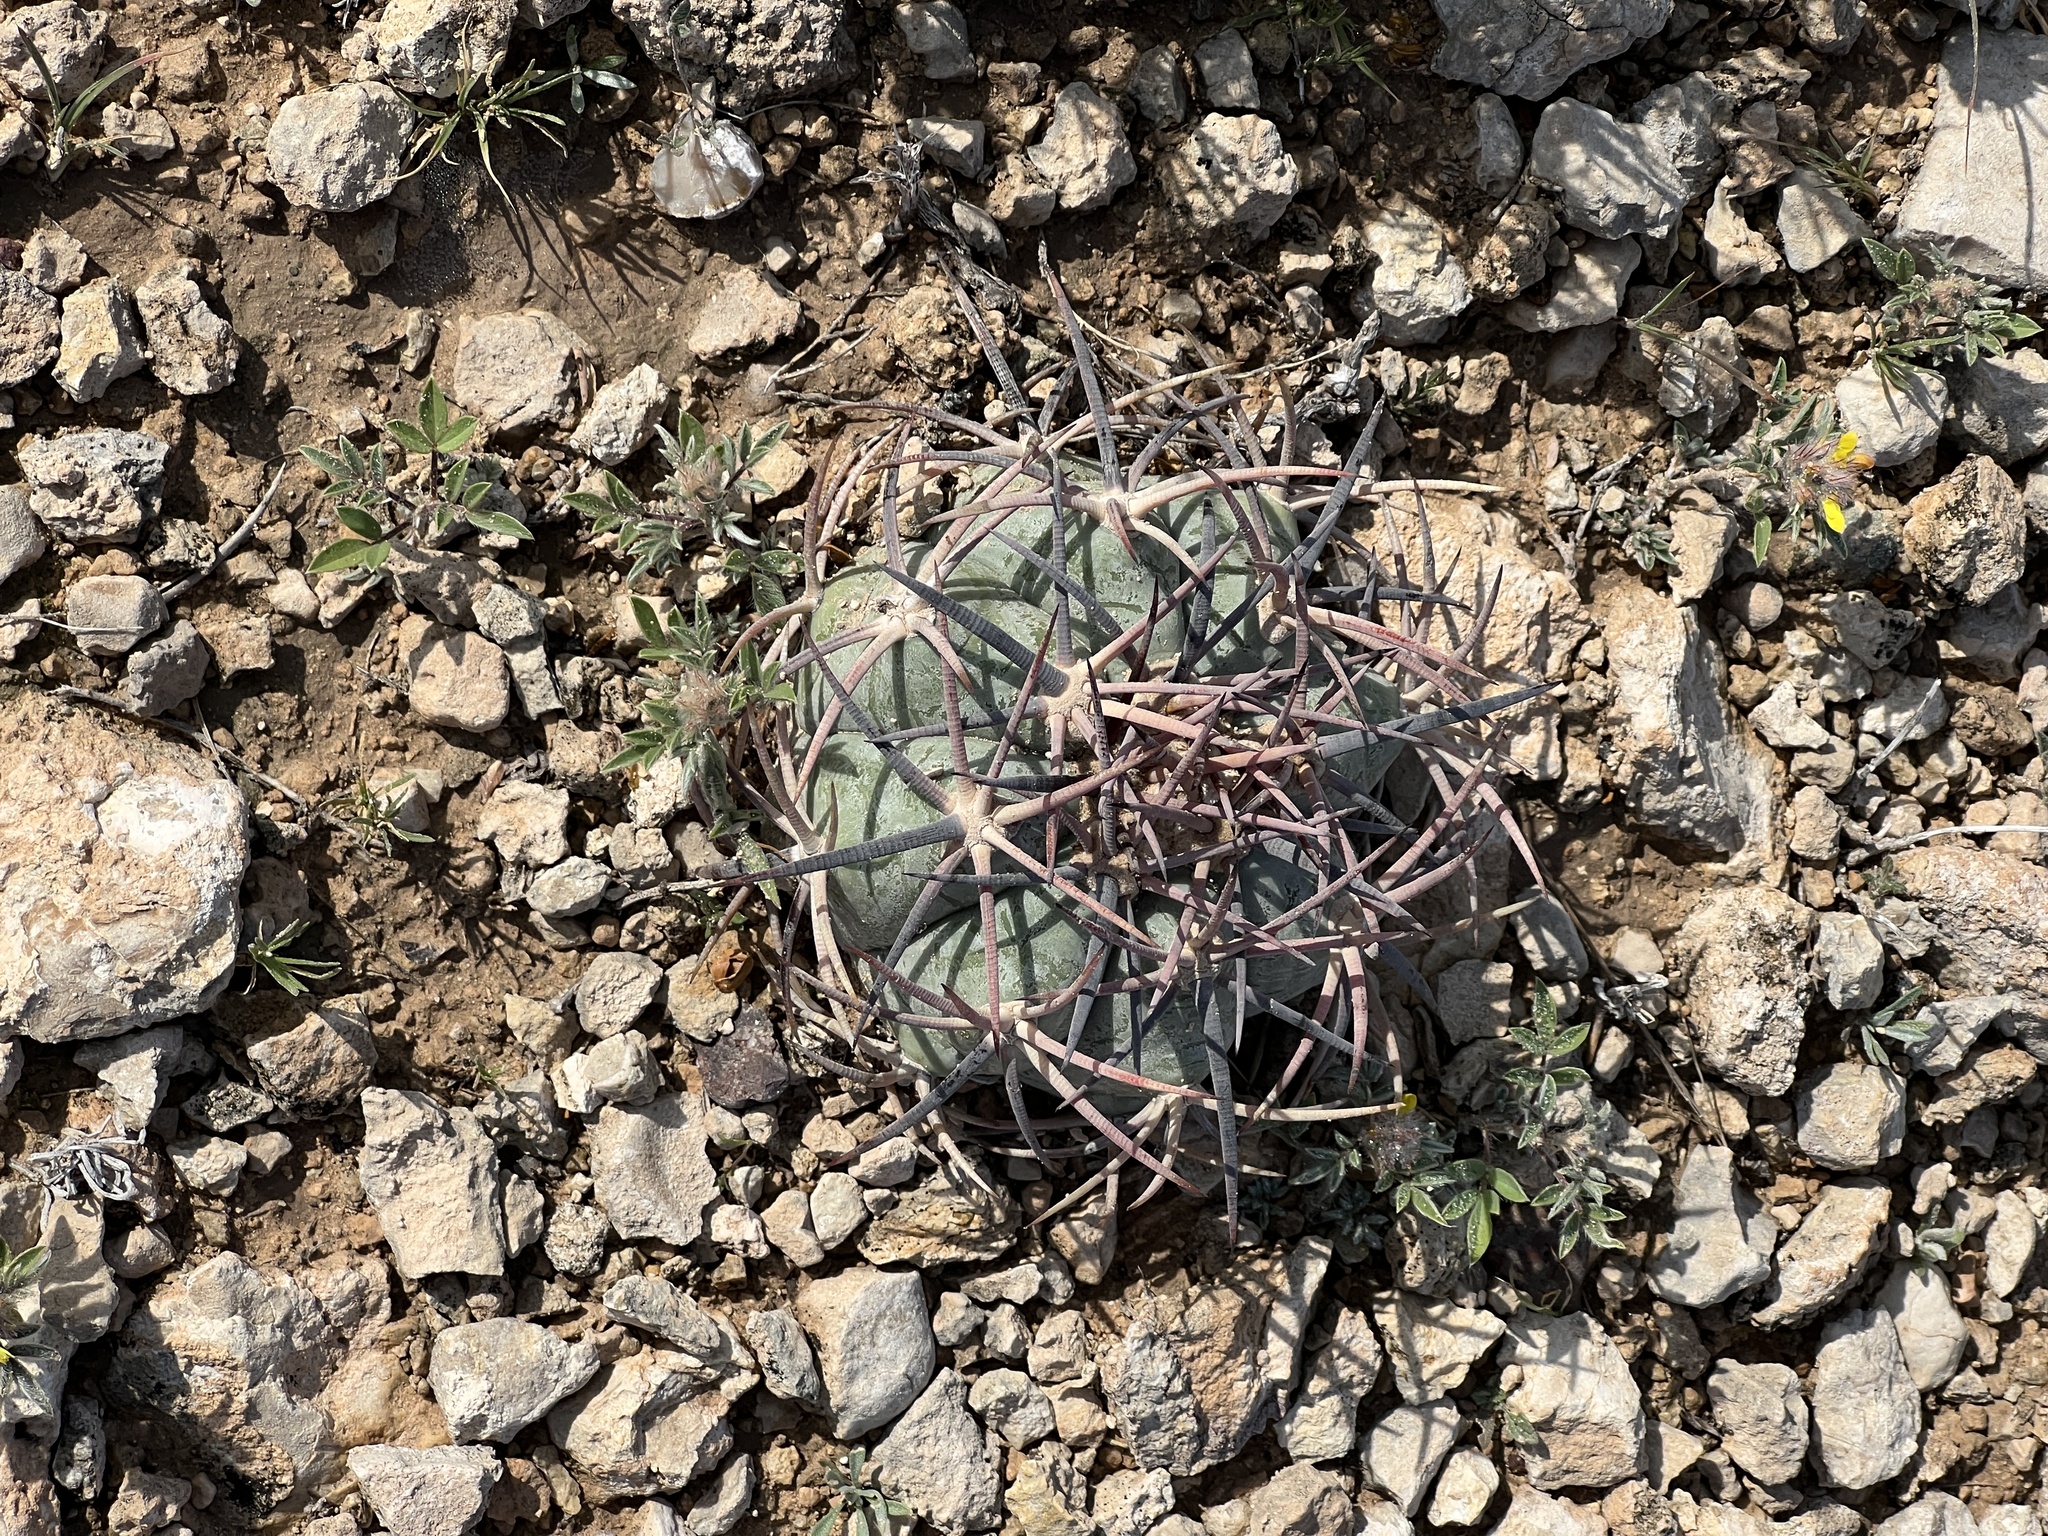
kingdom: Plantae
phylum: Tracheophyta
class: Magnoliopsida
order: Caryophyllales
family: Cactaceae
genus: Echinocactus
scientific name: Echinocactus horizonthalonius
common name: Devilshead
